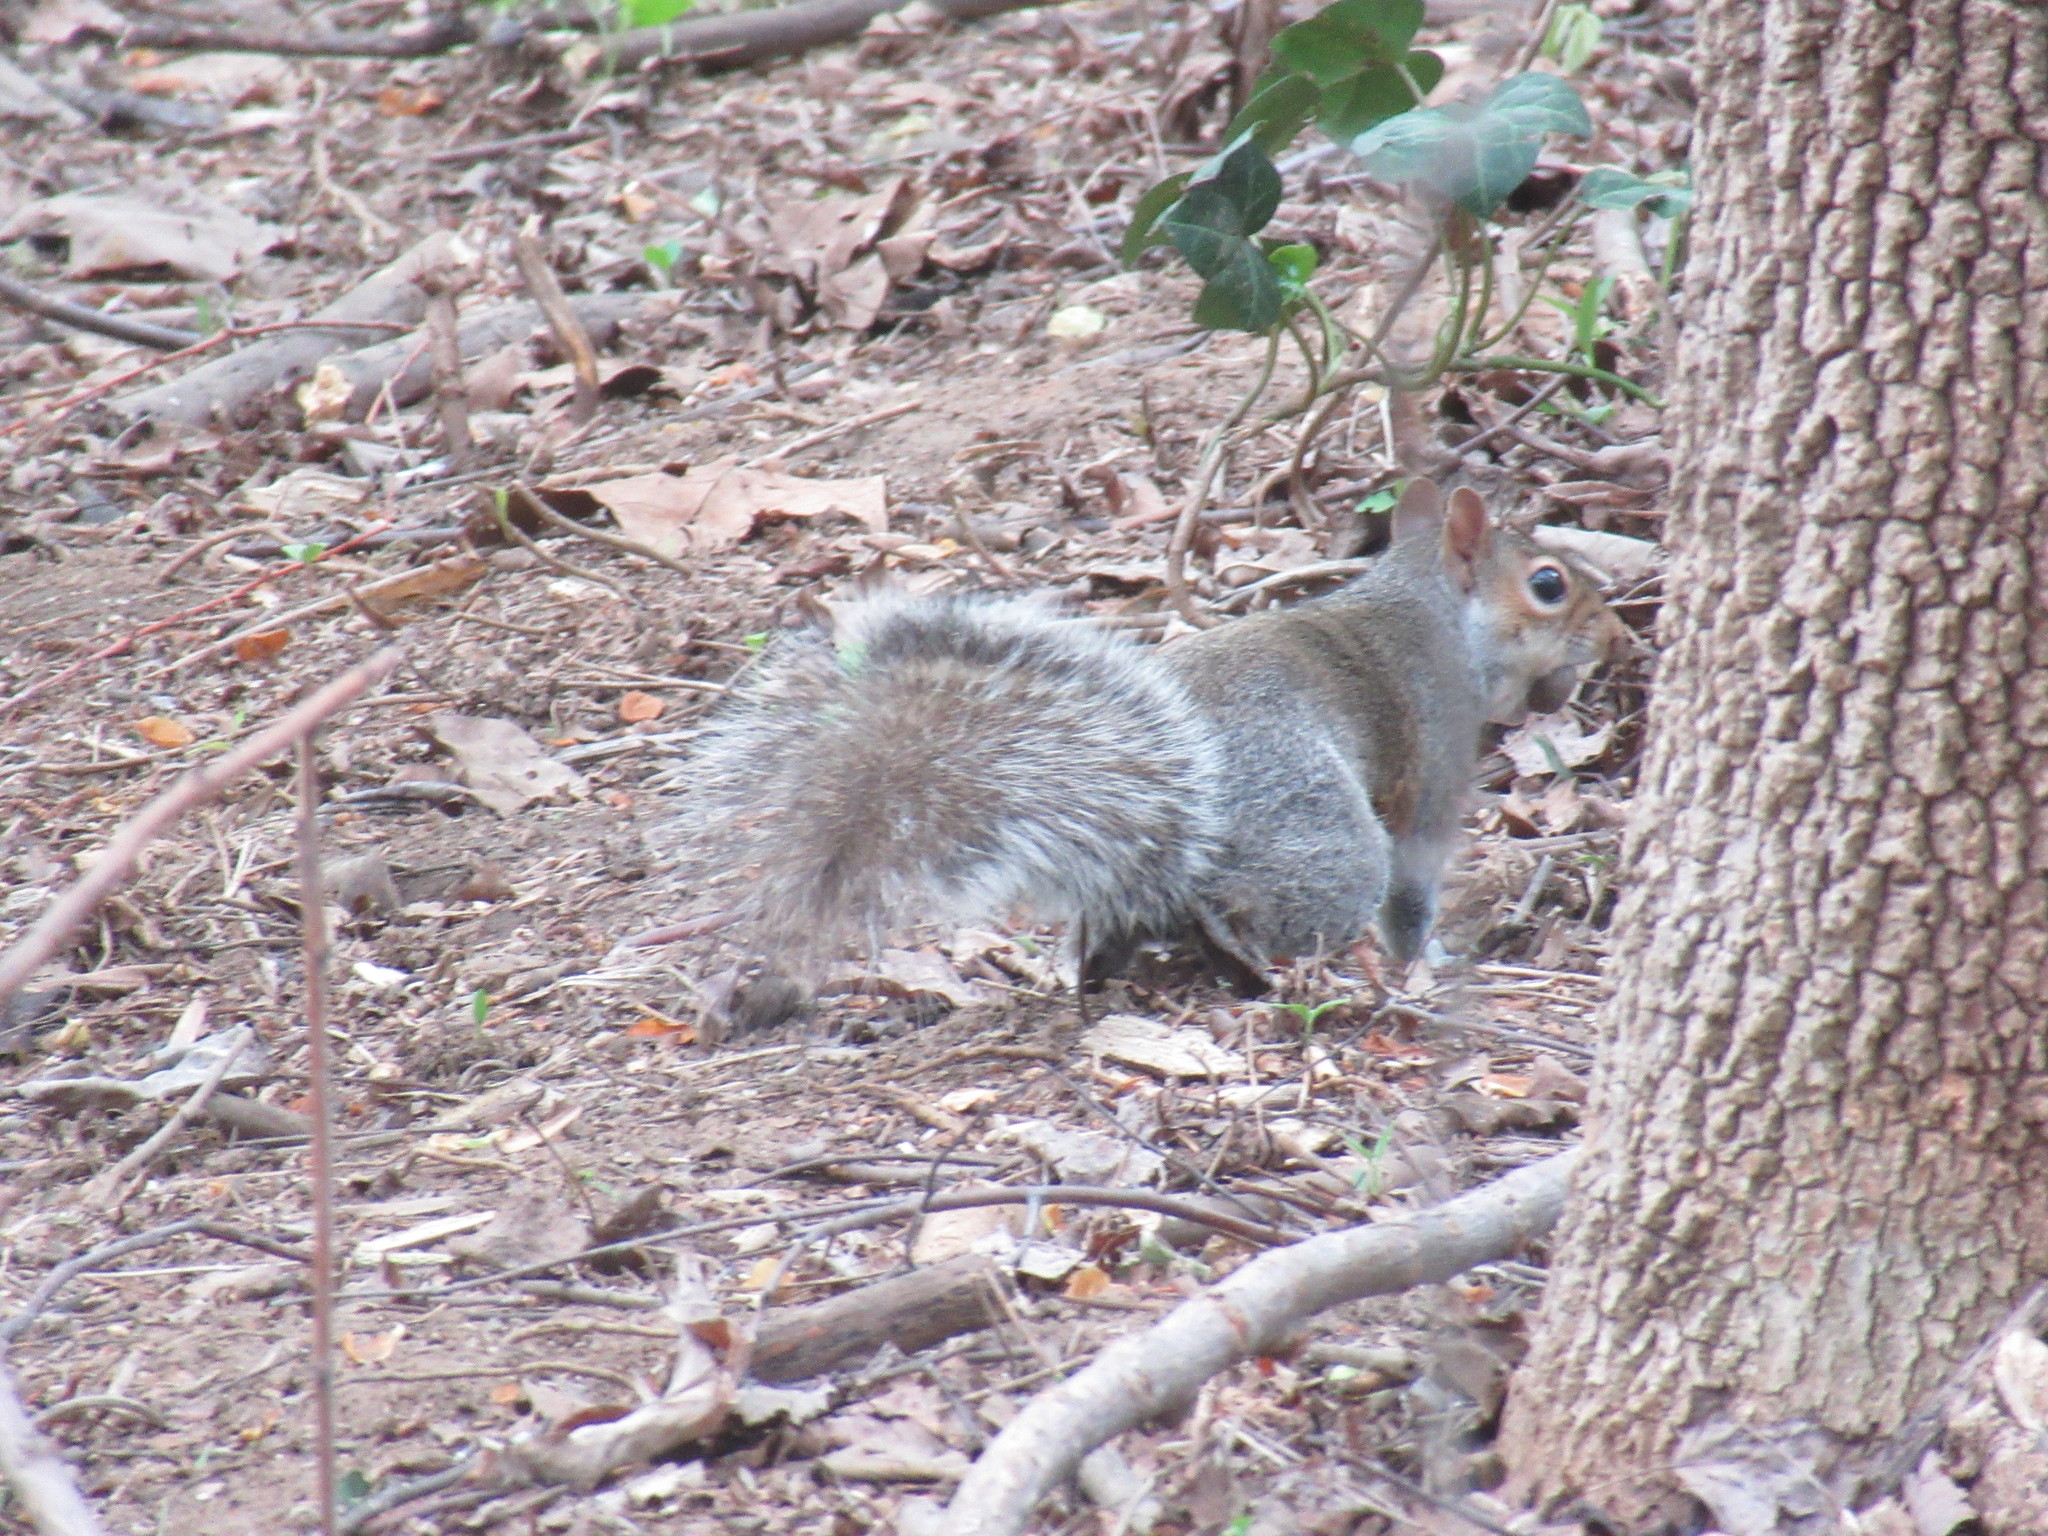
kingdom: Animalia
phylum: Chordata
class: Mammalia
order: Rodentia
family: Sciuridae
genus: Sciurus
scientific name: Sciurus carolinensis
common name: Eastern gray squirrel
